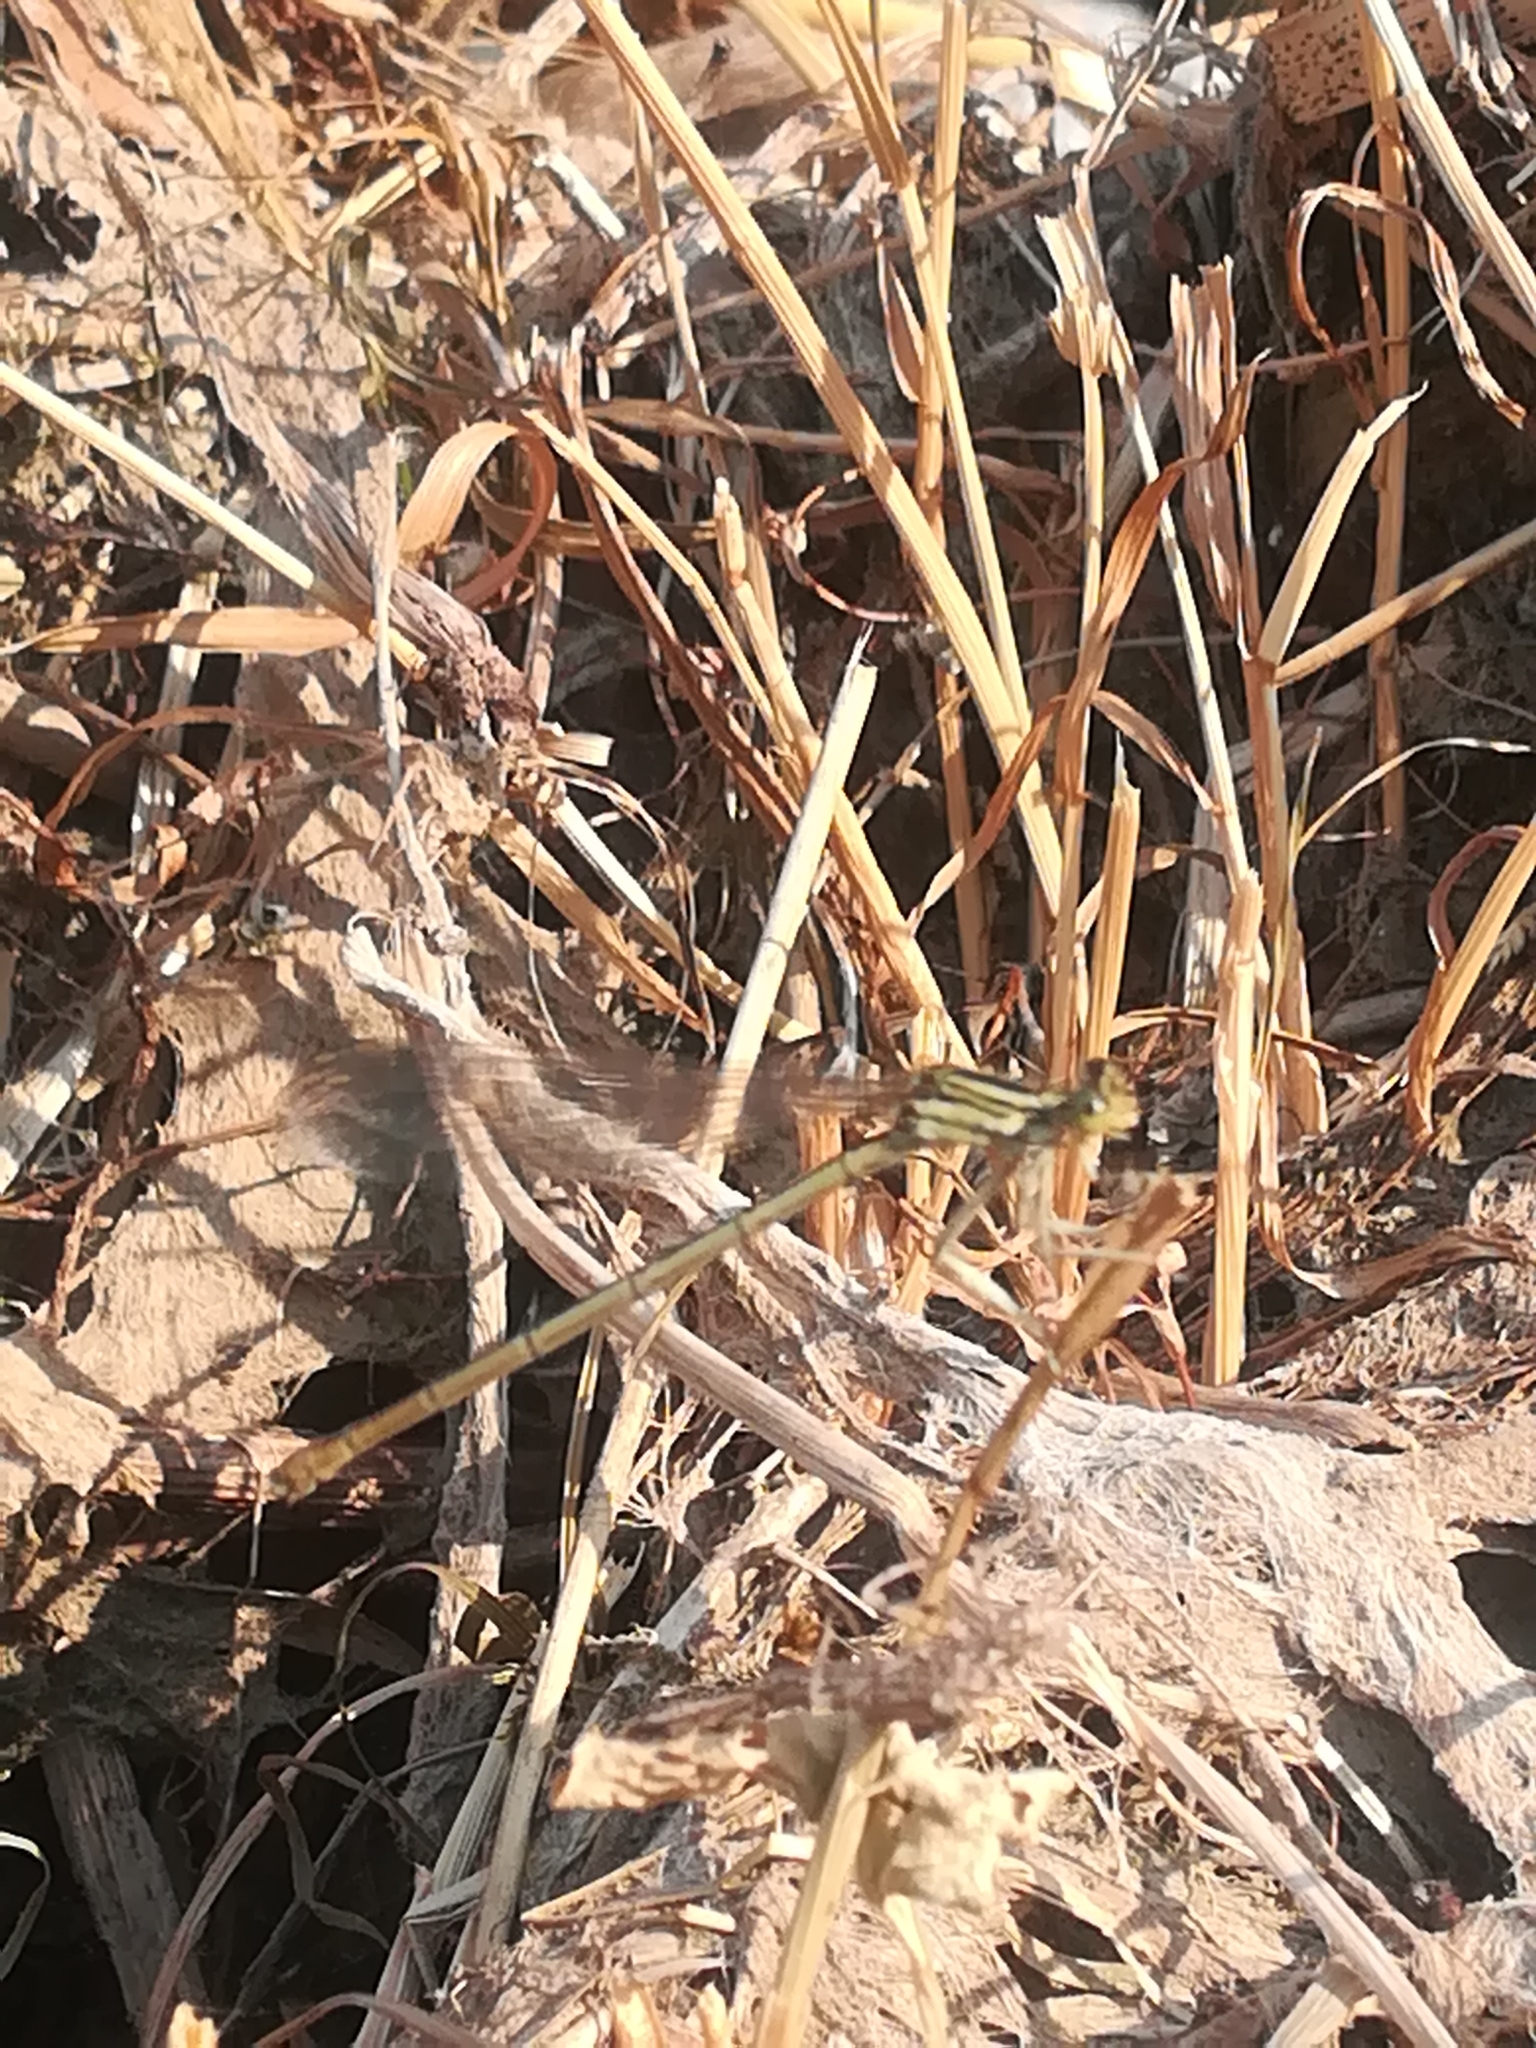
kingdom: Animalia
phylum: Arthropoda
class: Insecta
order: Odonata
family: Platycnemididae
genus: Platycnemis
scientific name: Platycnemis pennipes
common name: White-legged damselfly
